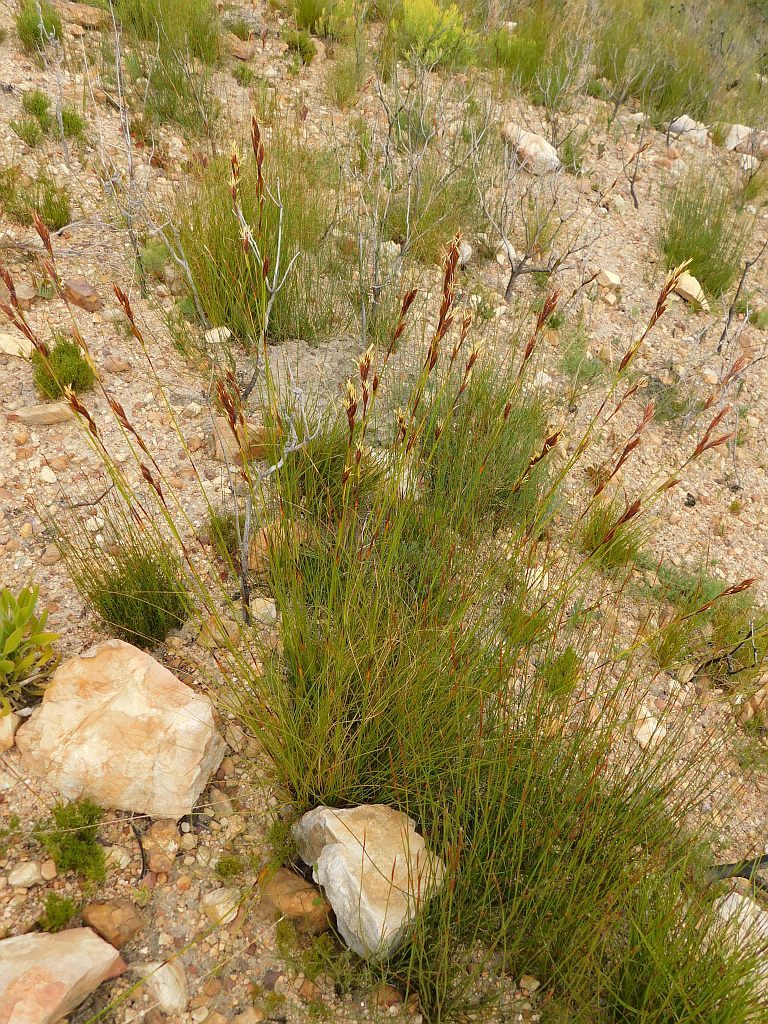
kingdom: Plantae
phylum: Tracheophyta
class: Liliopsida
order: Poales
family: Cyperaceae
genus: Tetraria
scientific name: Tetraria ustulata
